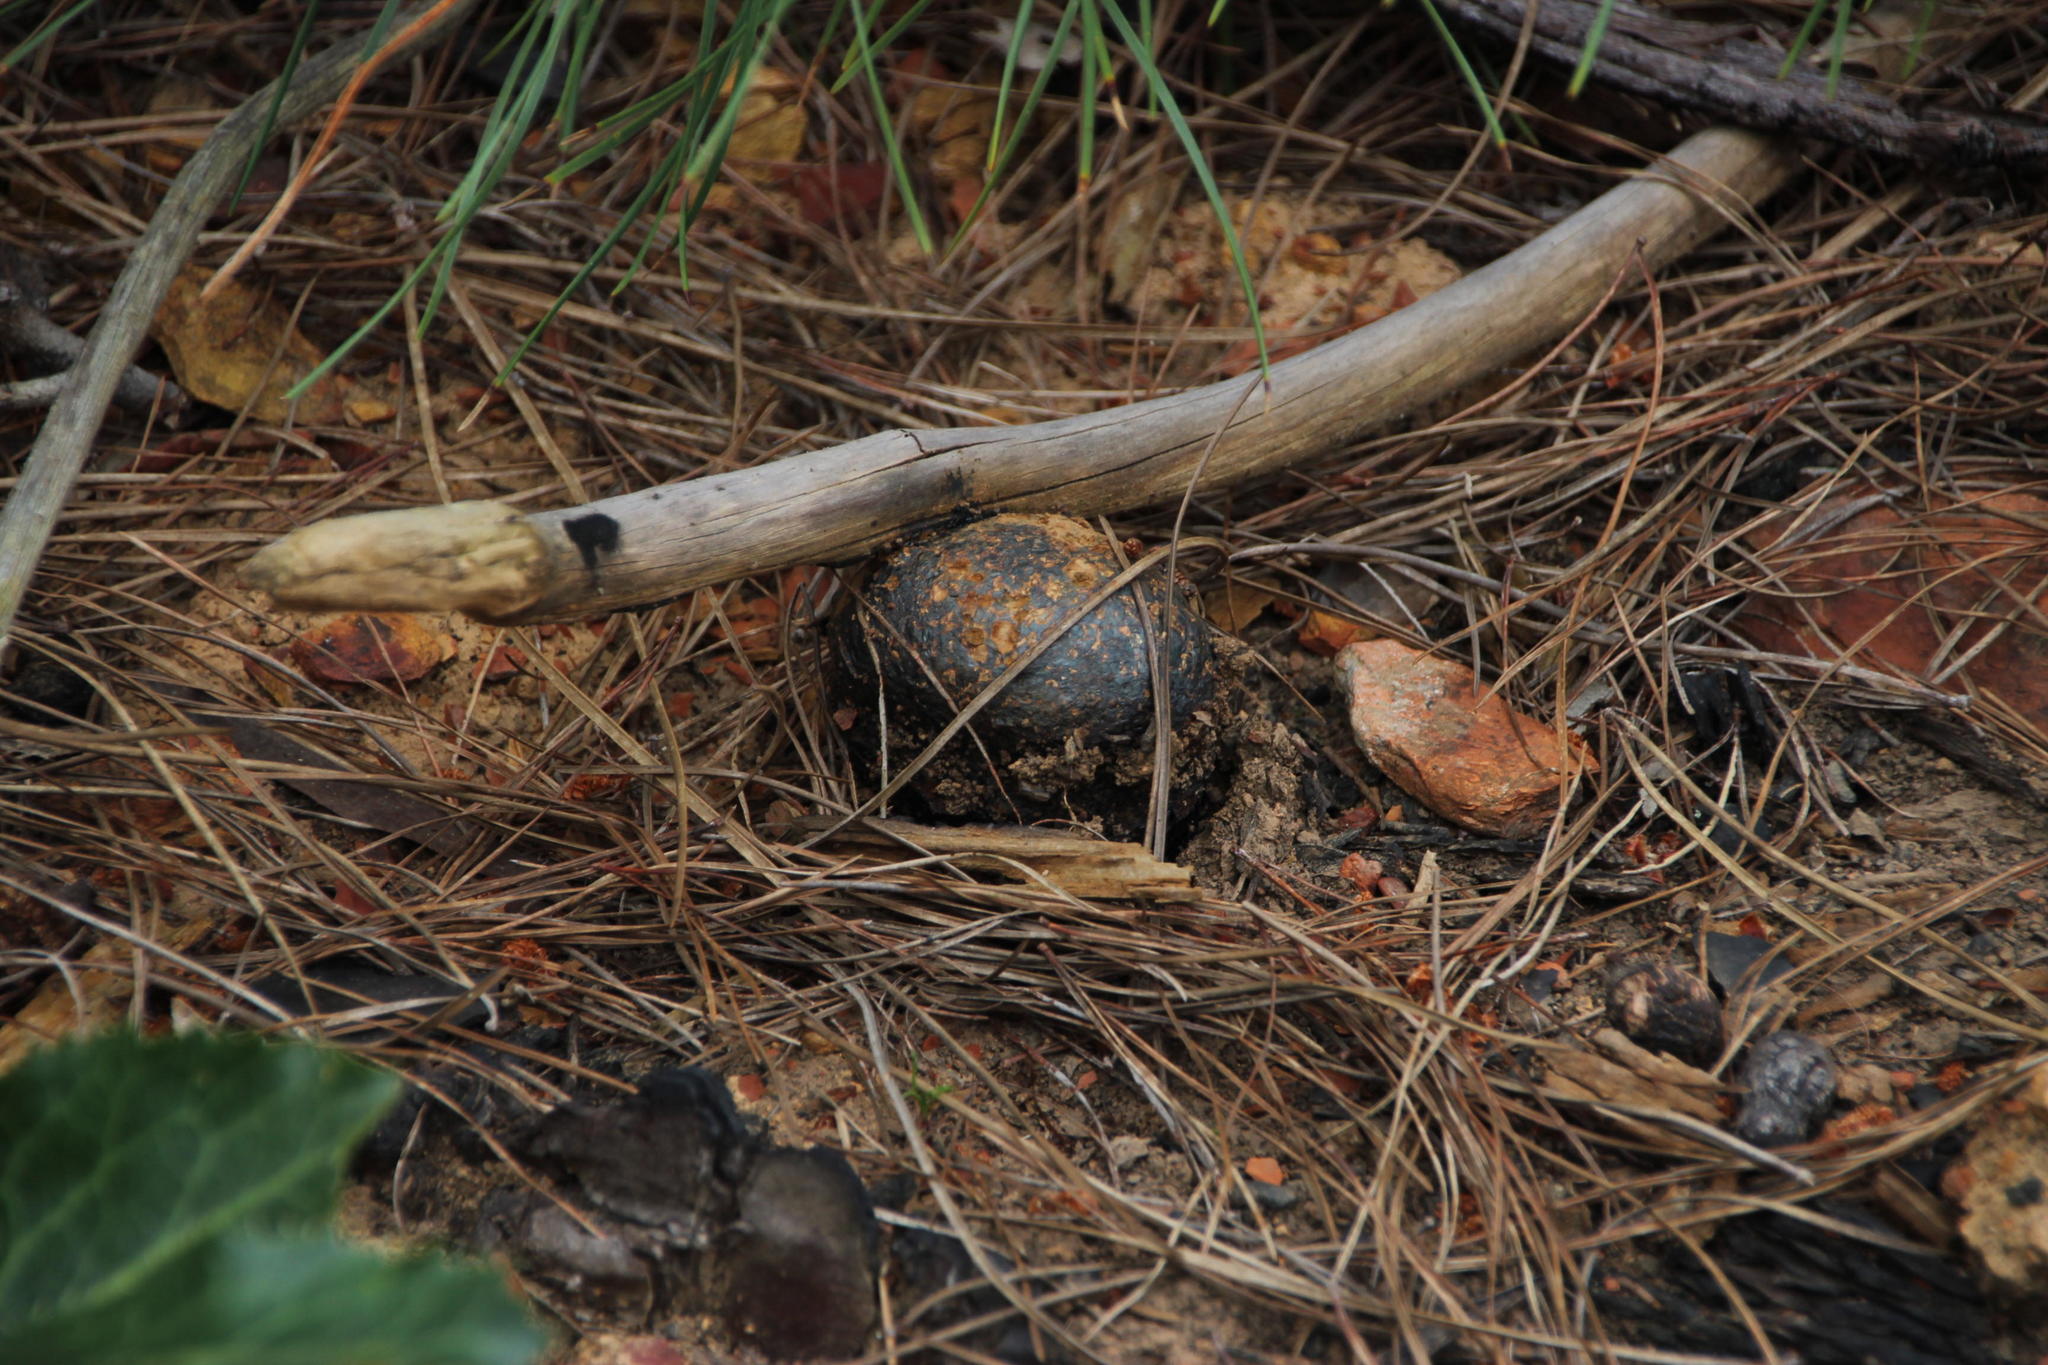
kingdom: Fungi
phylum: Basidiomycota
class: Agaricomycetes
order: Boletales
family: Sclerodermataceae
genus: Pisolithus
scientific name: Pisolithus tinctorius
